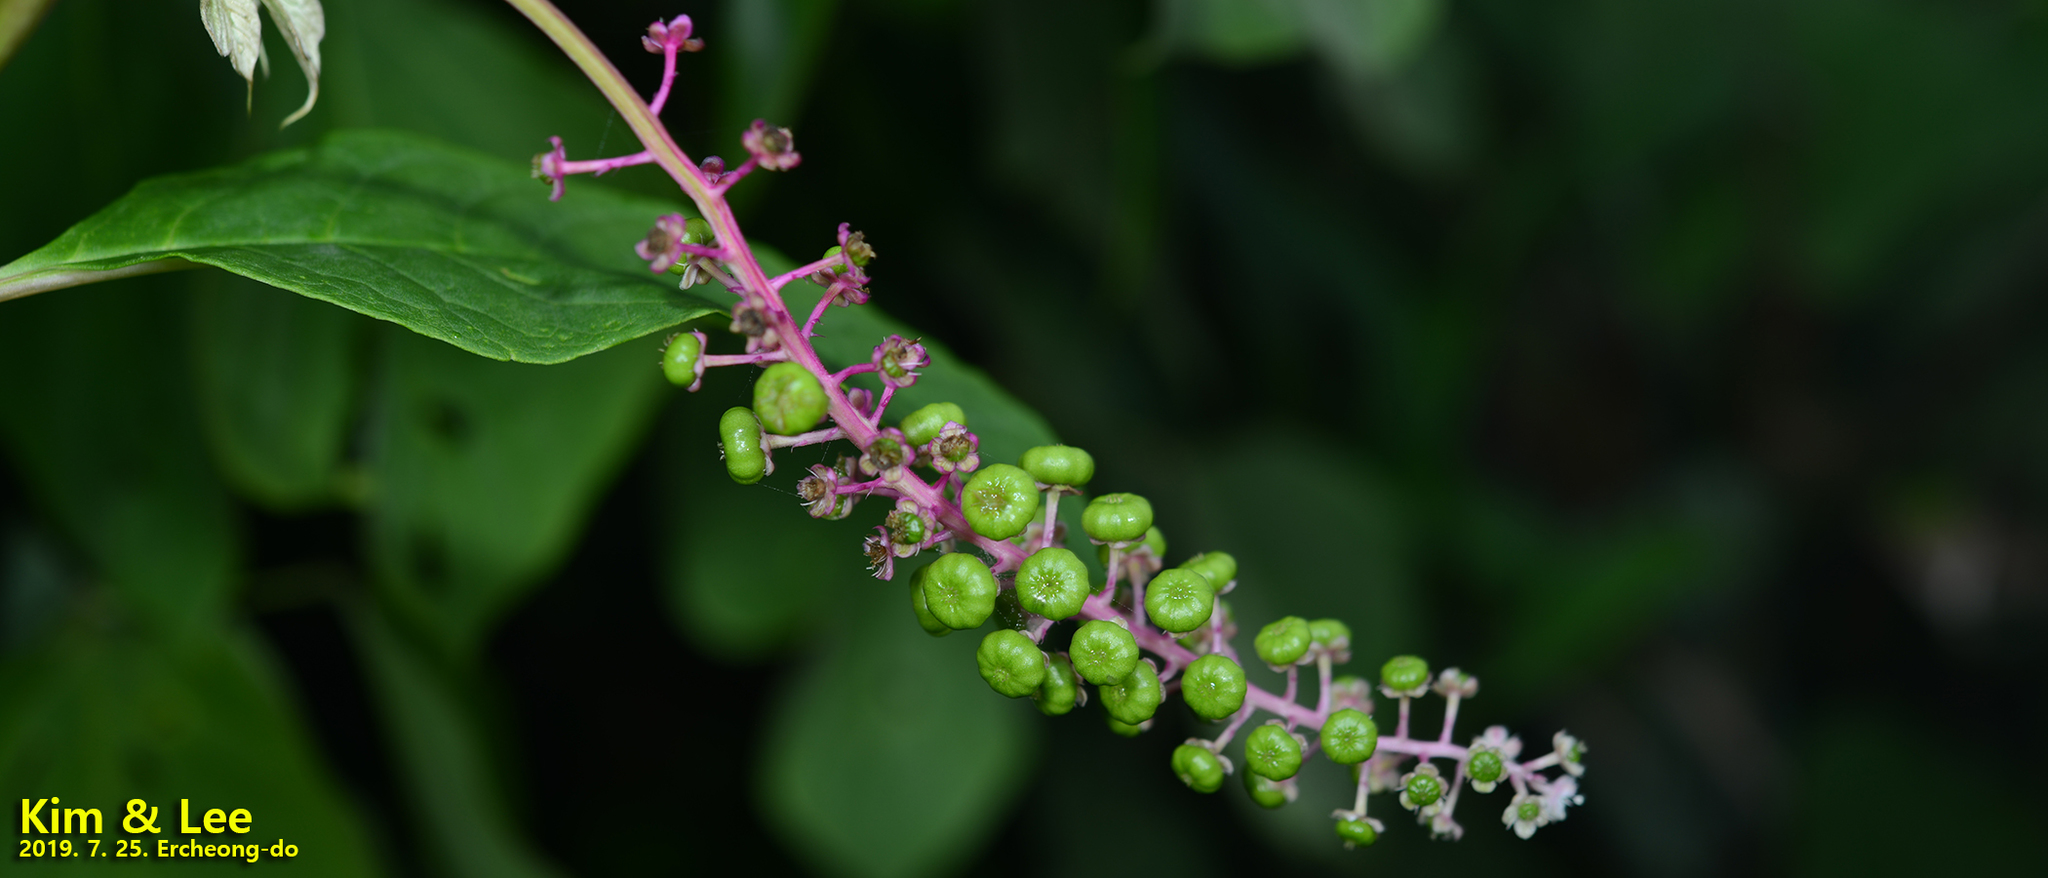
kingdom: Plantae
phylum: Tracheophyta
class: Magnoliopsida
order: Caryophyllales
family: Phytolaccaceae
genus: Phytolacca
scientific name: Phytolacca americana
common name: American pokeweed
